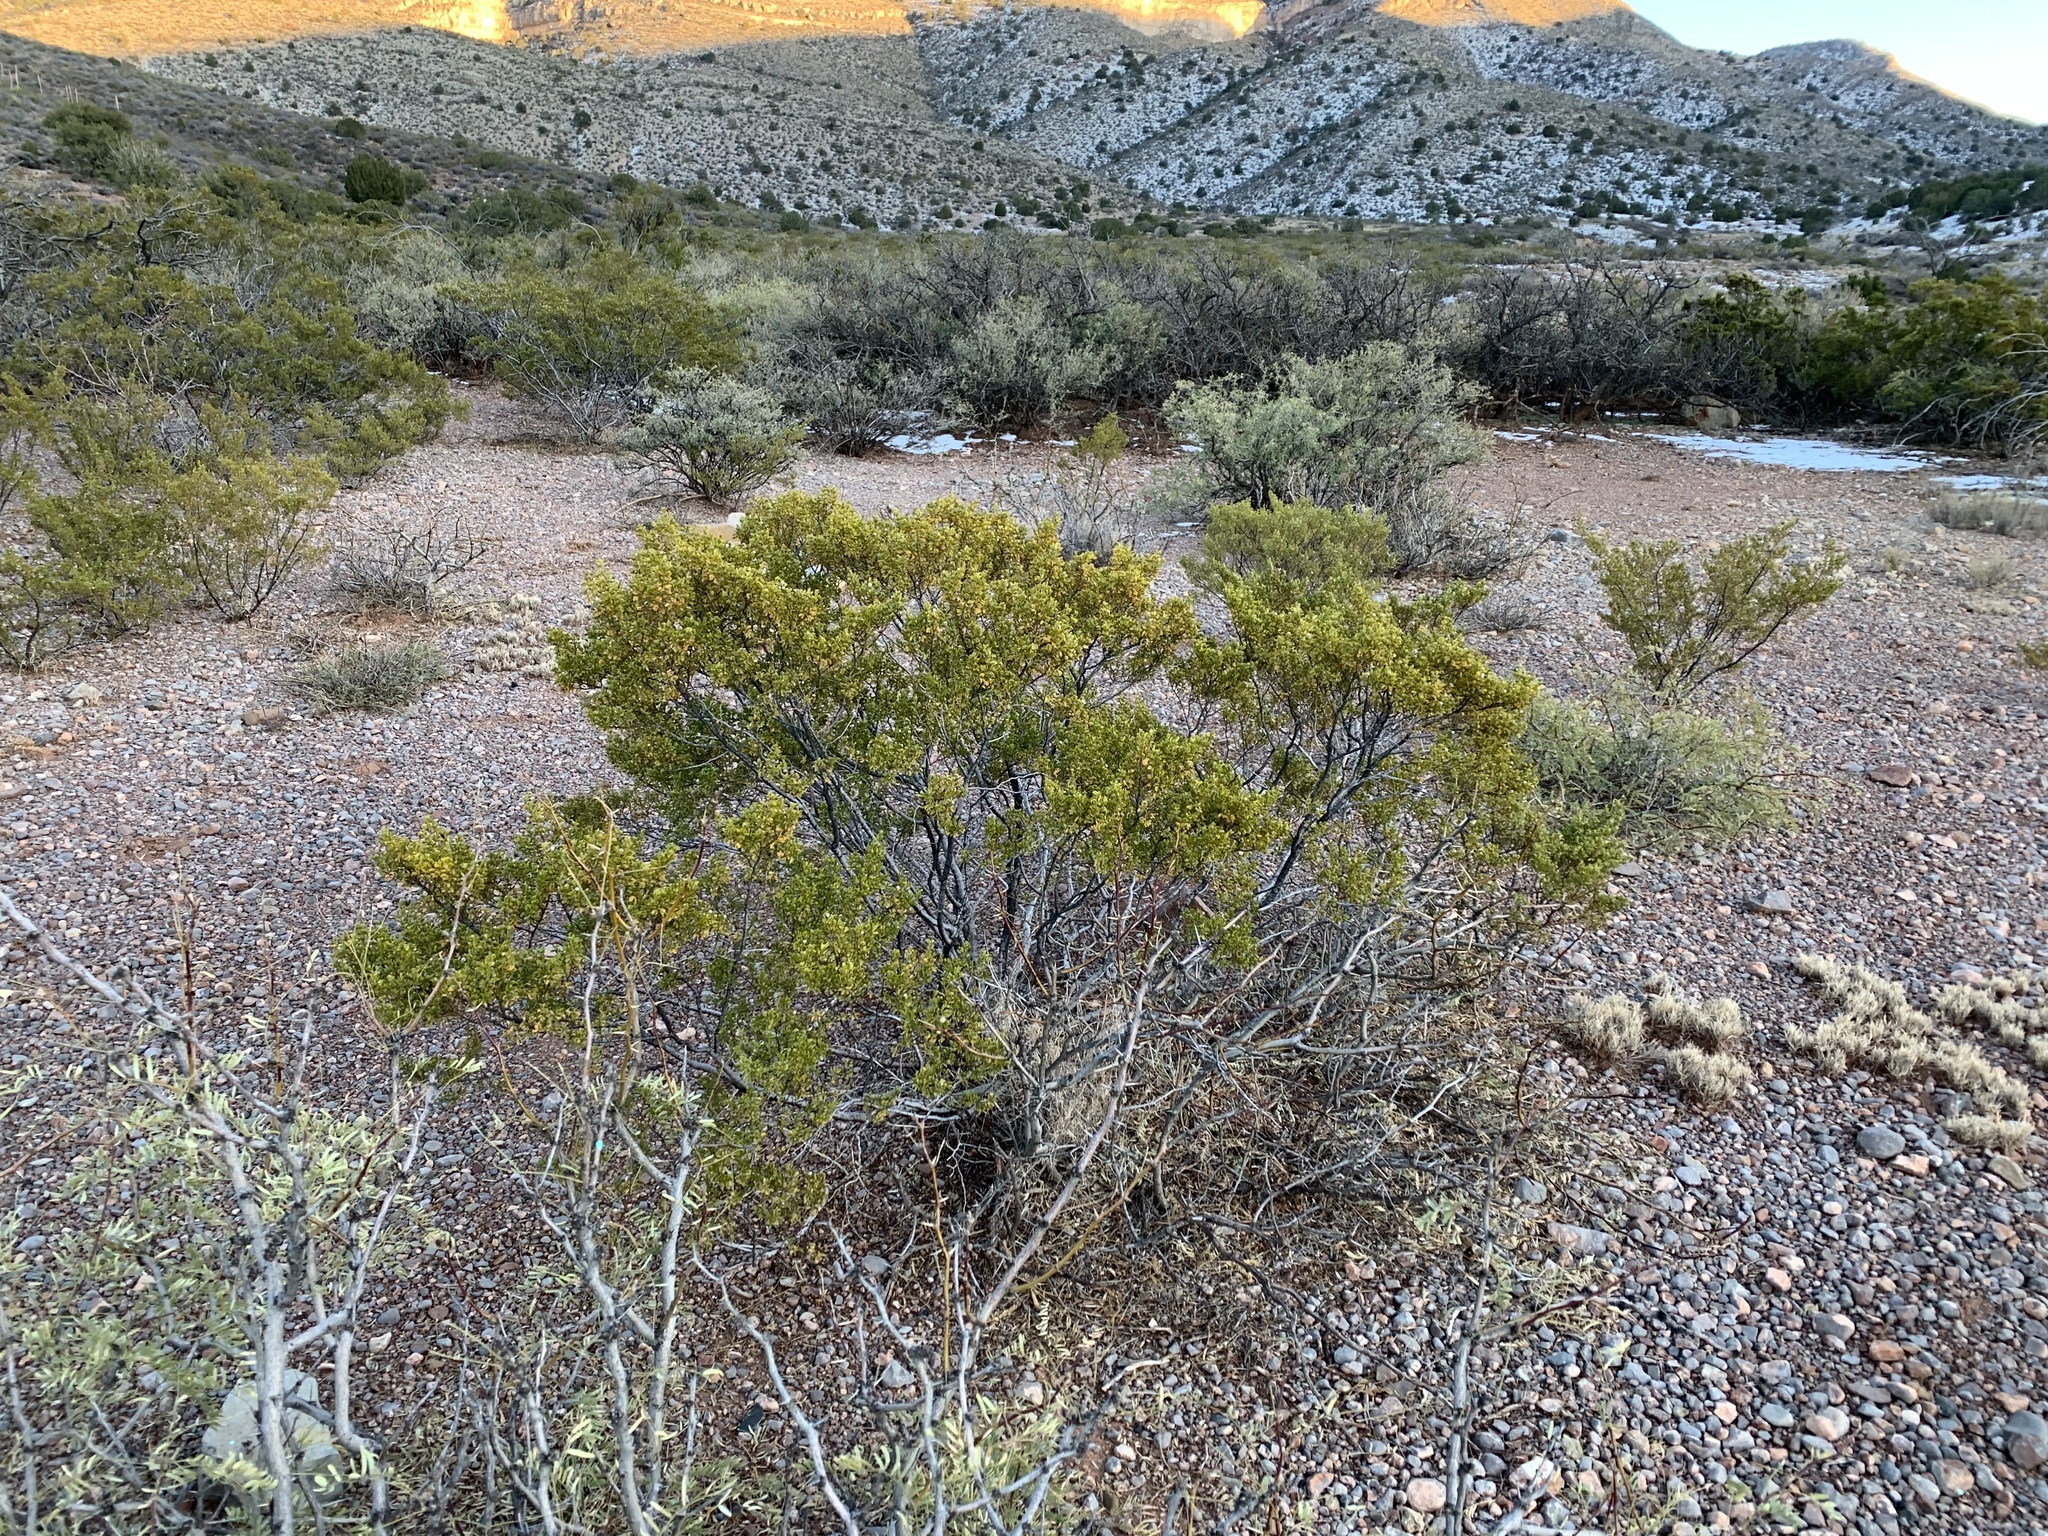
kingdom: Plantae
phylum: Tracheophyta
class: Magnoliopsida
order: Zygophyllales
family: Zygophyllaceae
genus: Larrea
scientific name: Larrea tridentata
